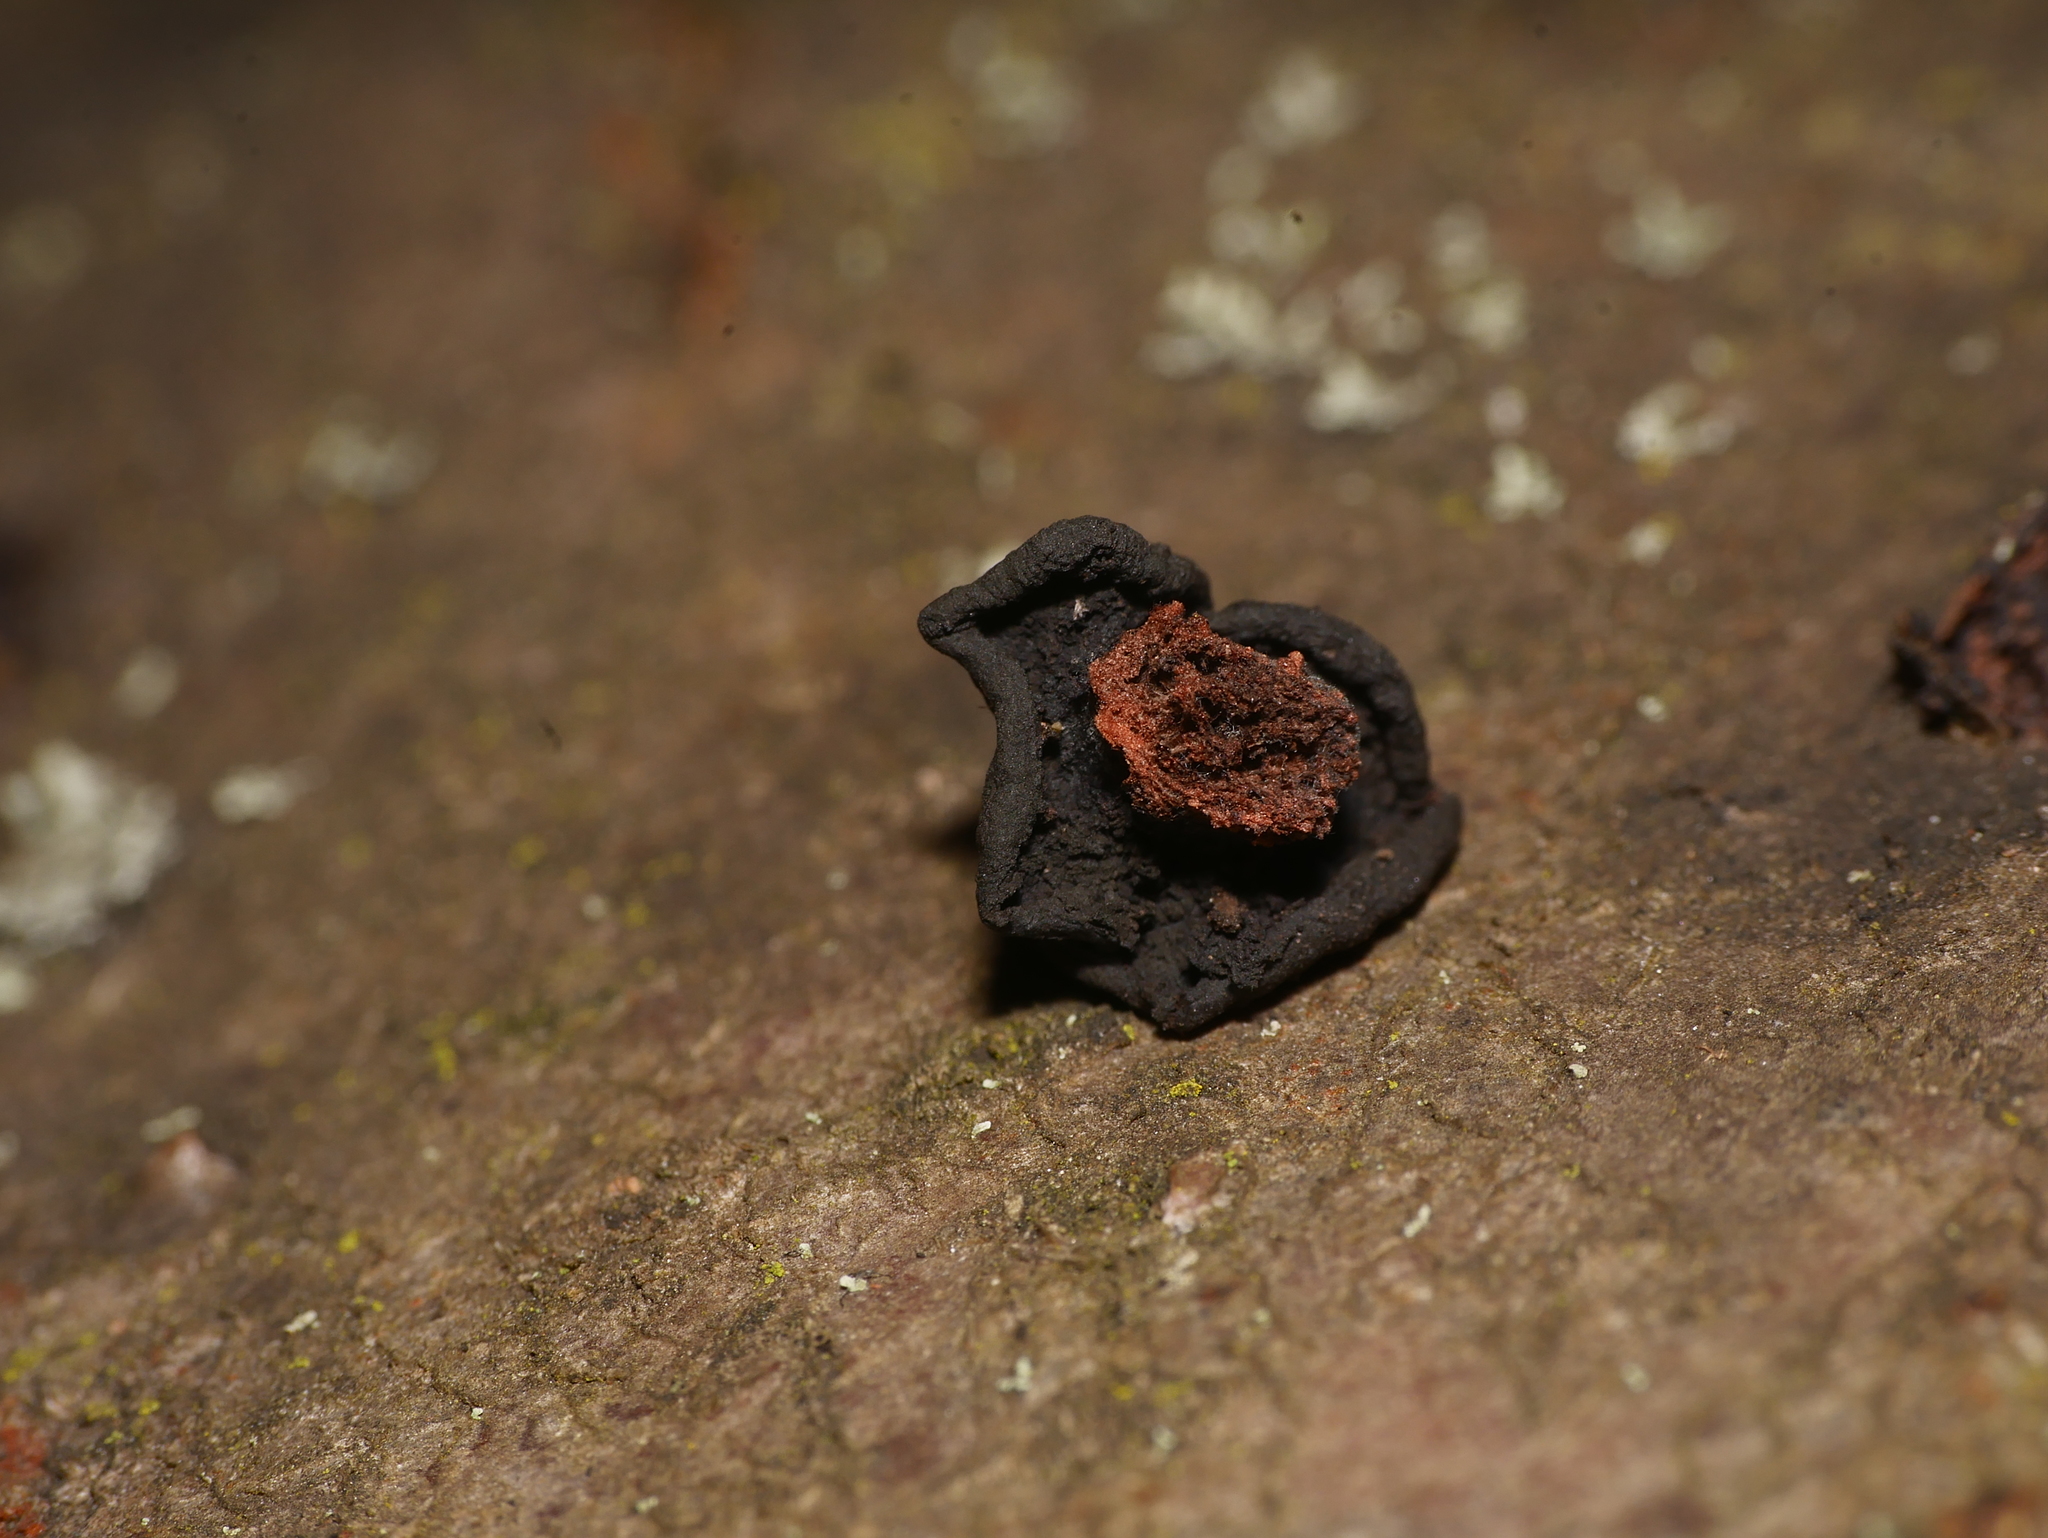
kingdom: Fungi
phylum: Ascomycota
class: Leotiomycetes
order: Phacidiales
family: Phacidiaceae
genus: Bulgaria
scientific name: Bulgaria inquinans
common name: Black bulgar
